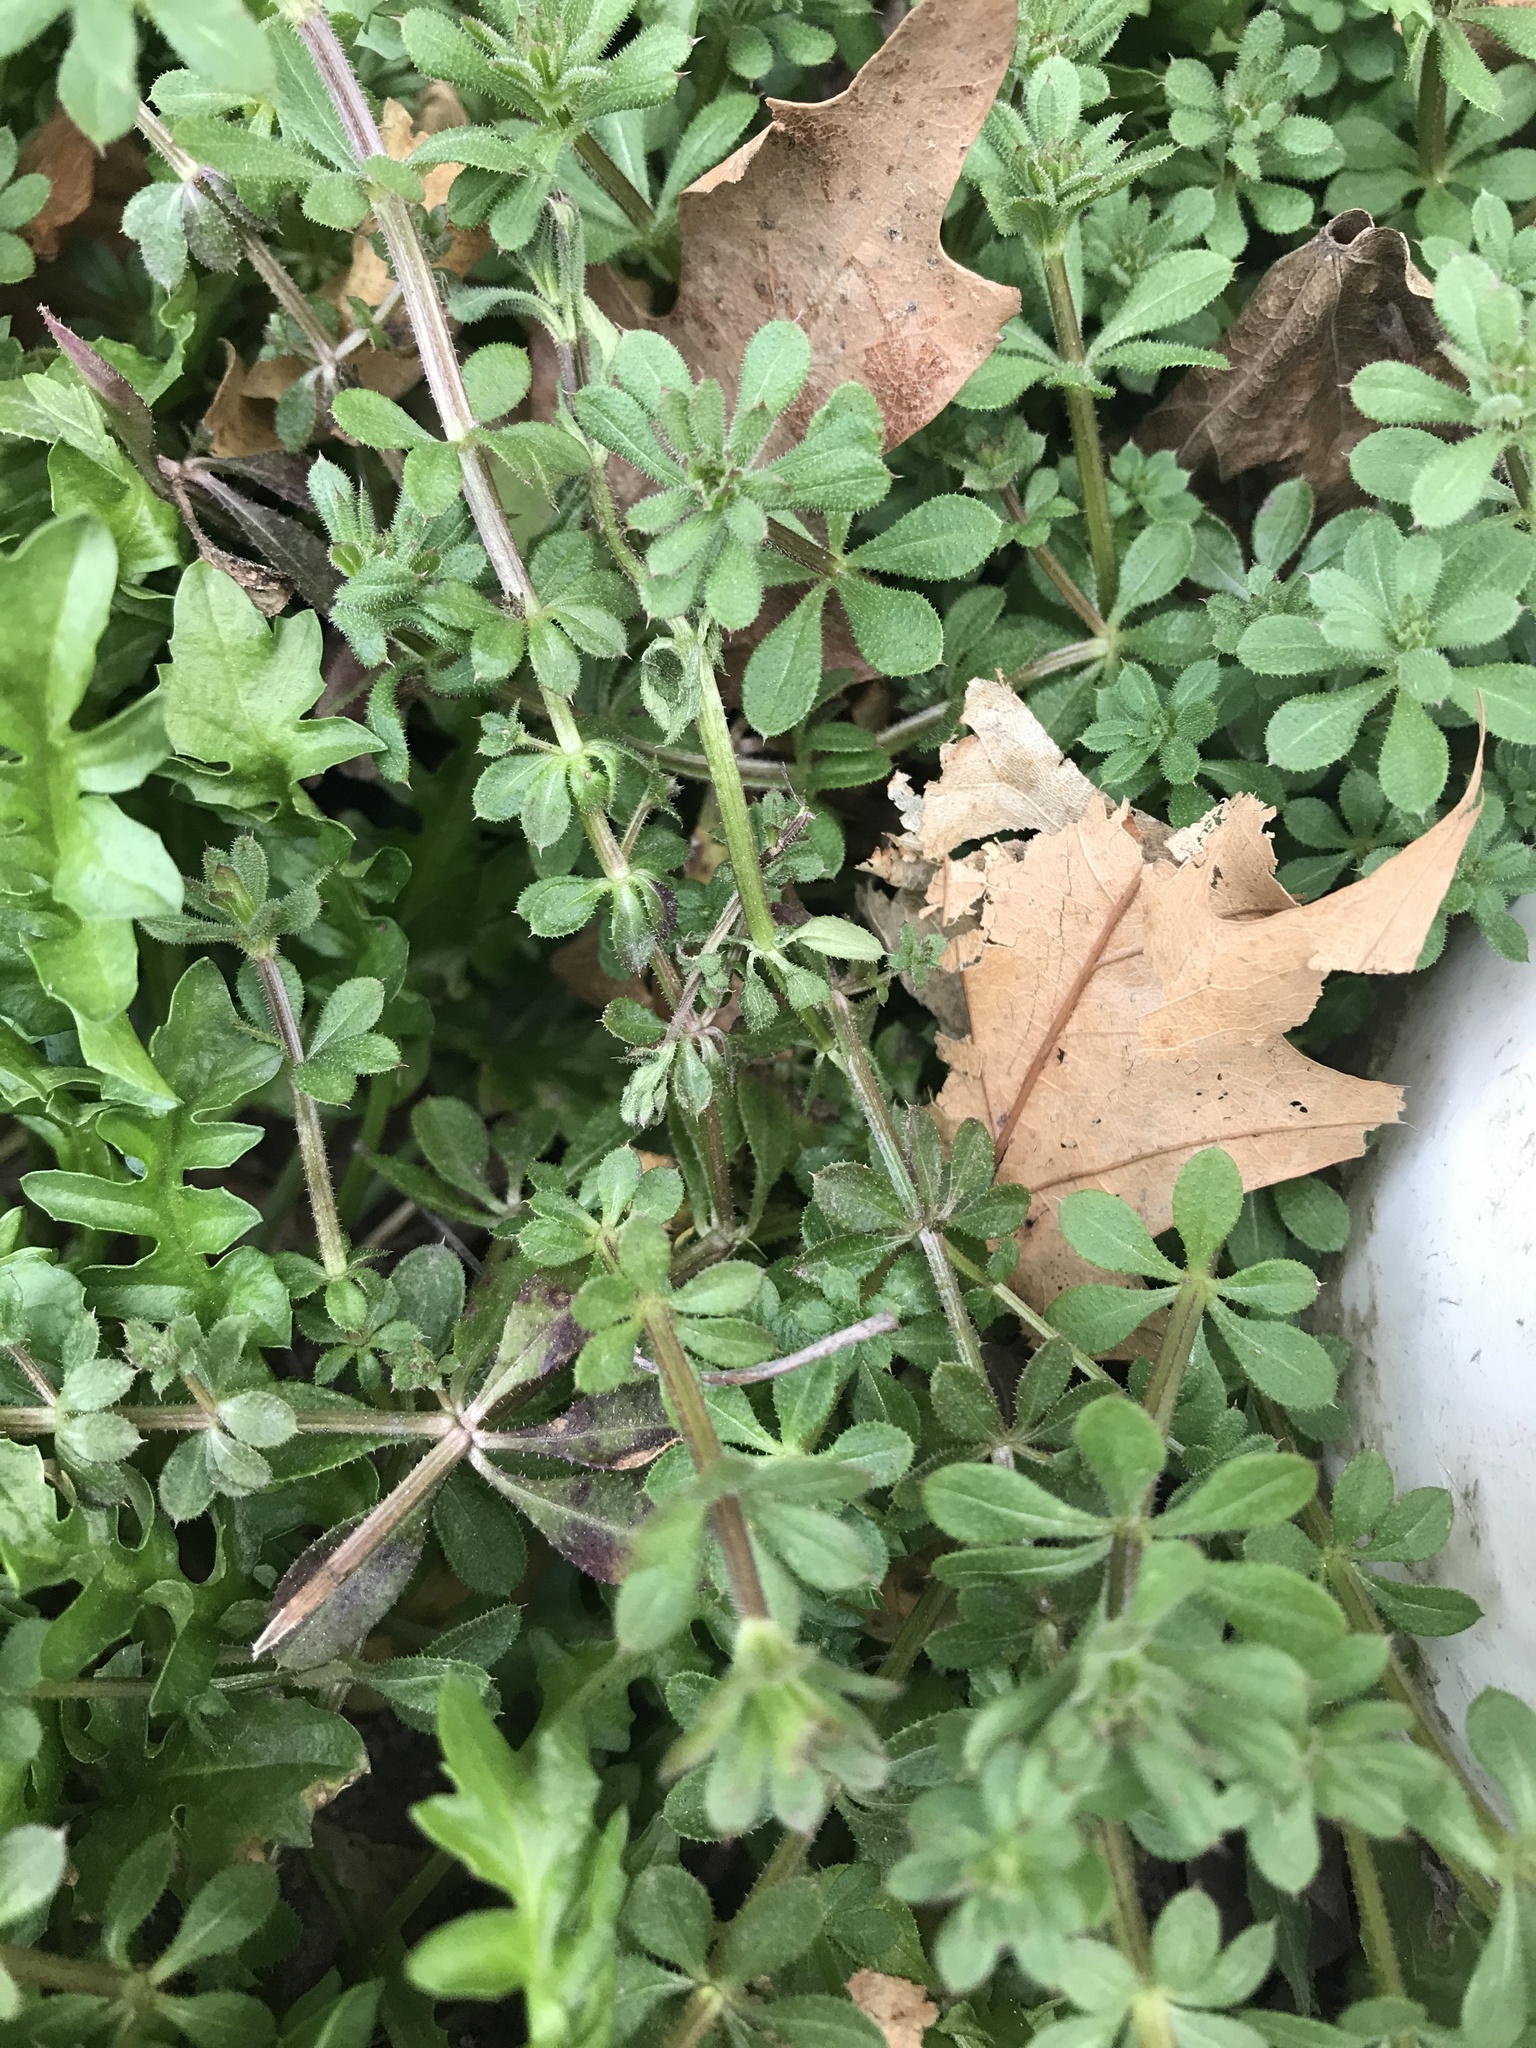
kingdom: Plantae
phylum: Tracheophyta
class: Magnoliopsida
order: Gentianales
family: Rubiaceae
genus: Galium
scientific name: Galium aparine
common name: Cleavers
